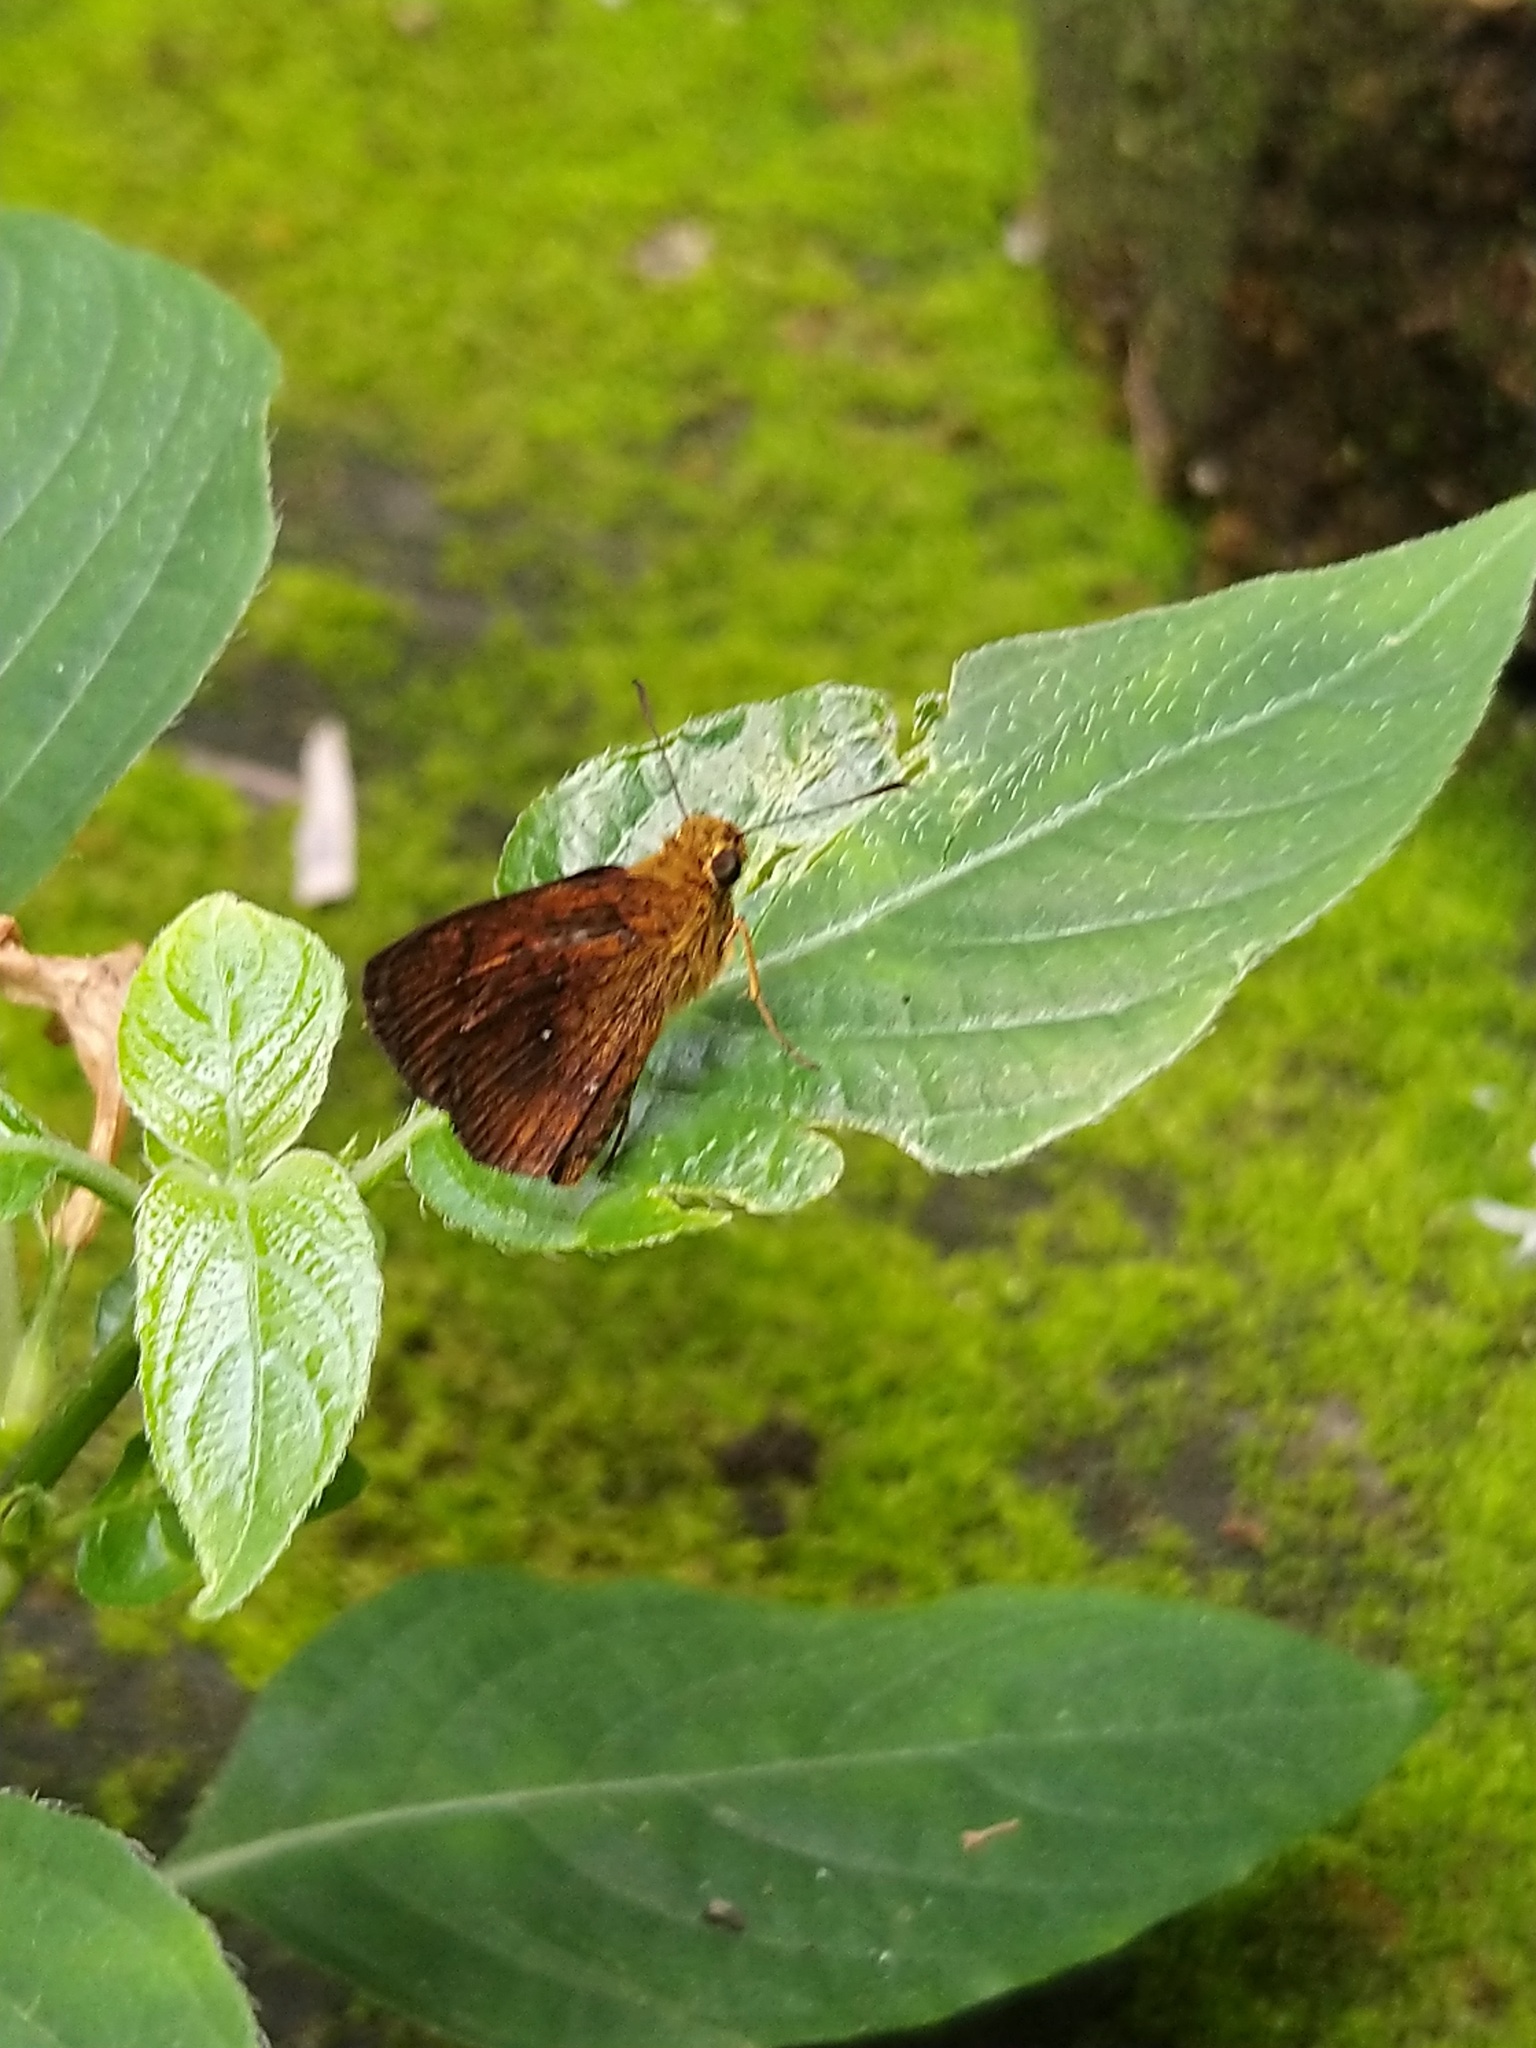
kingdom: Animalia
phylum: Arthropoda
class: Insecta
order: Lepidoptera
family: Hesperiidae
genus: Iambrix
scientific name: Iambrix salsala
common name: Chestnut bob
